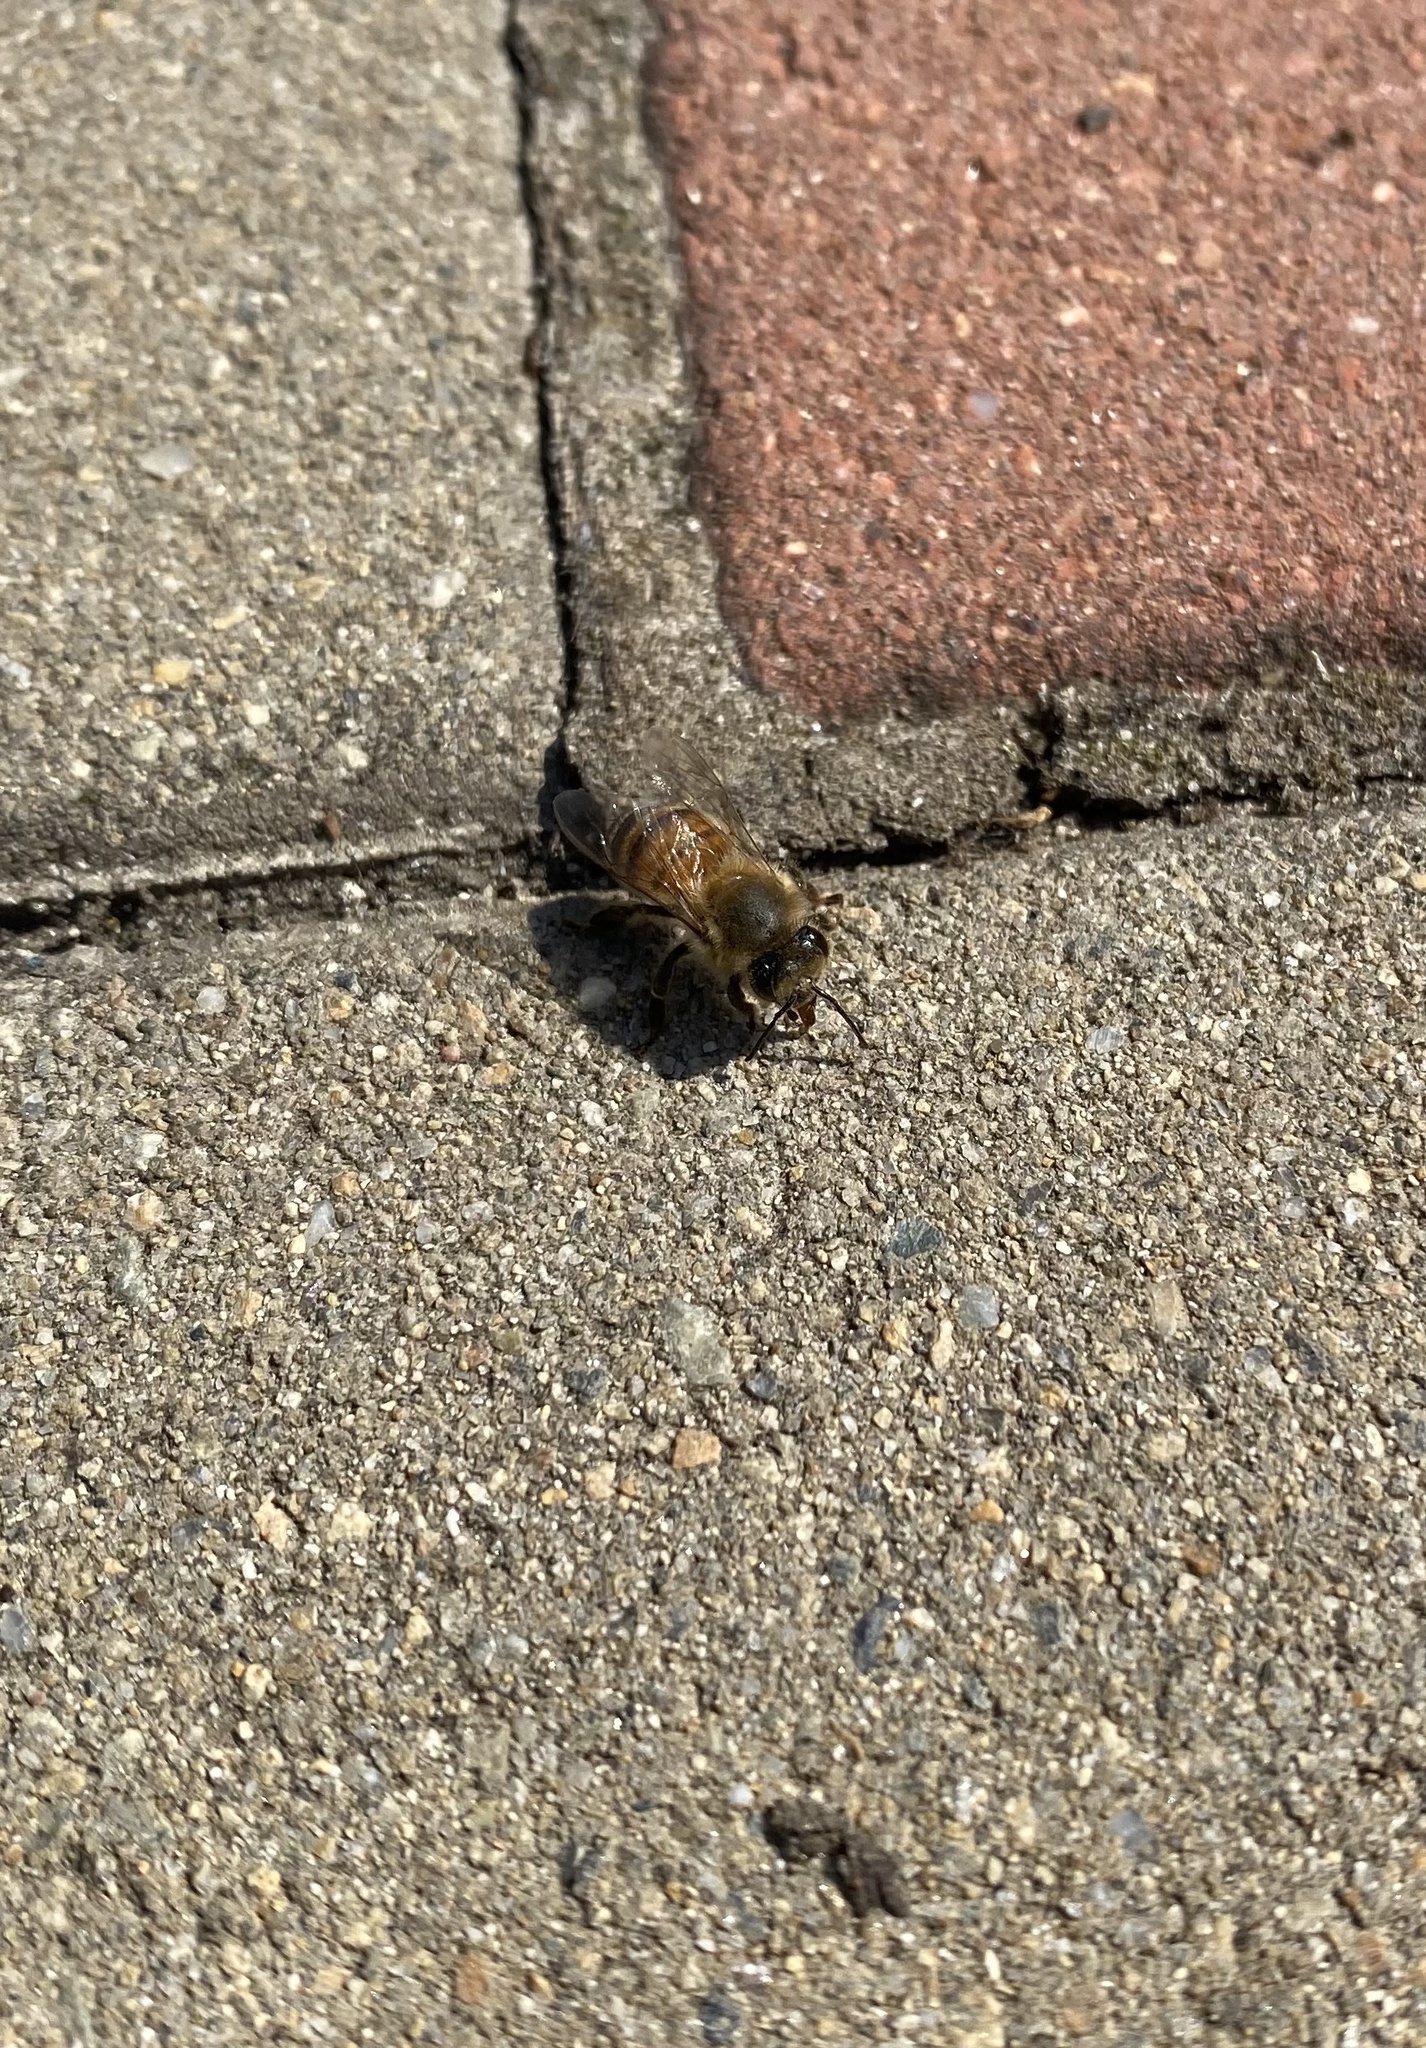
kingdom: Animalia
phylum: Arthropoda
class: Insecta
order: Hymenoptera
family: Apidae
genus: Apis
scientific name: Apis mellifera
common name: Honey bee
